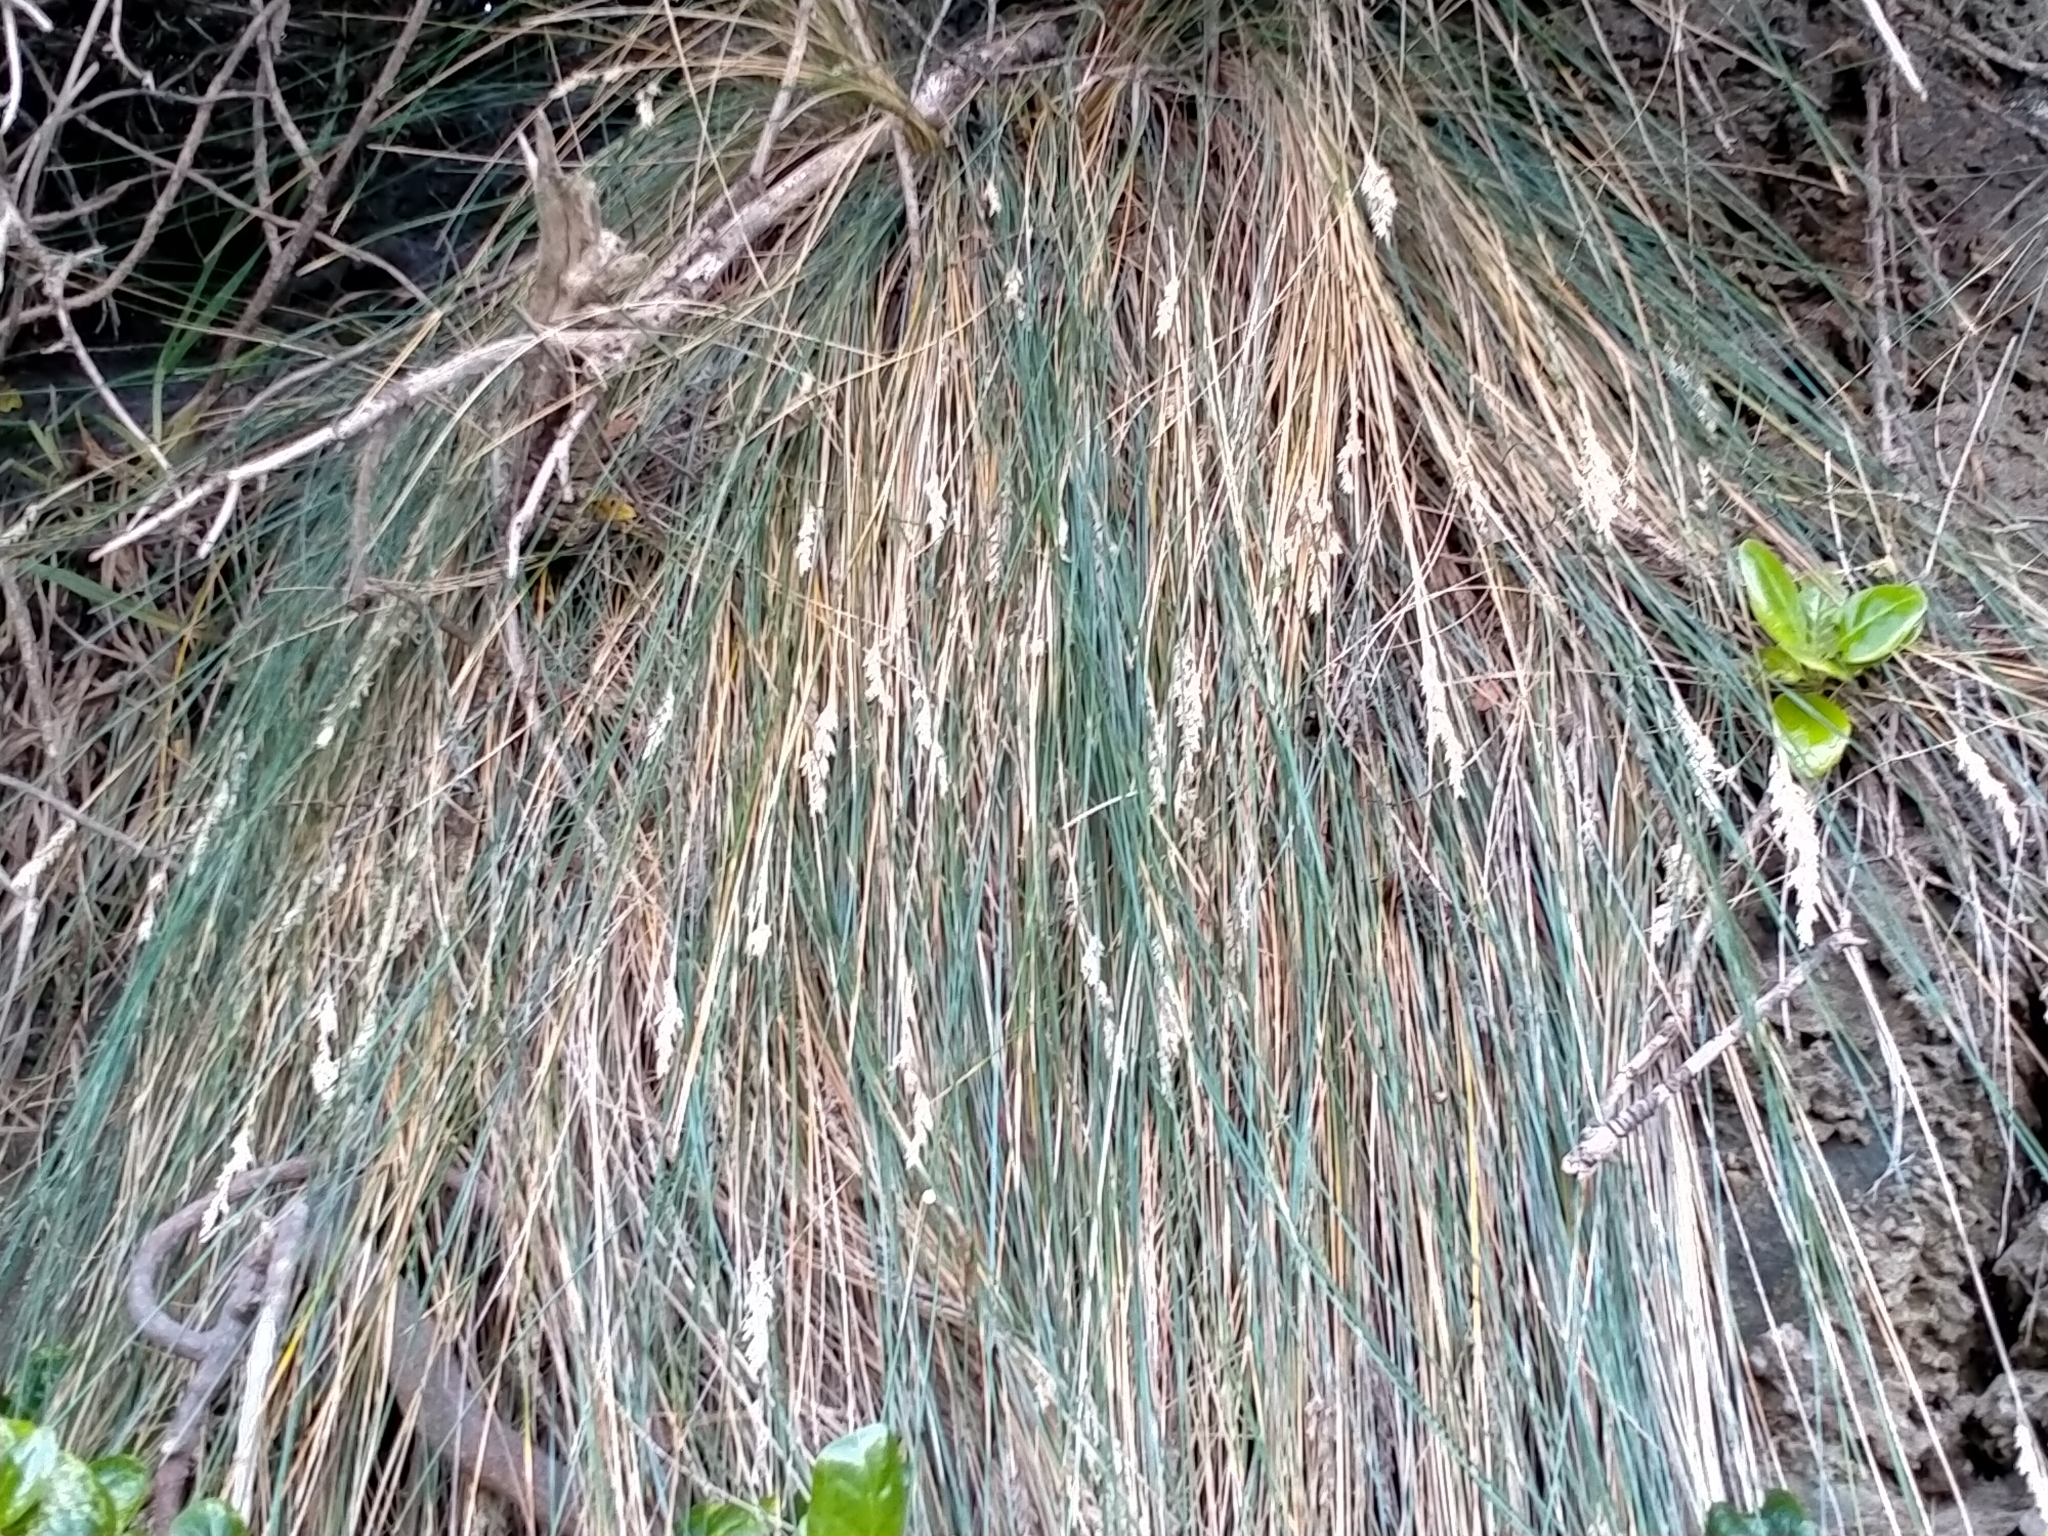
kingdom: Plantae
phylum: Tracheophyta
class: Liliopsida
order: Poales
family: Poaceae
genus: Poa
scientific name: Poa astonii
